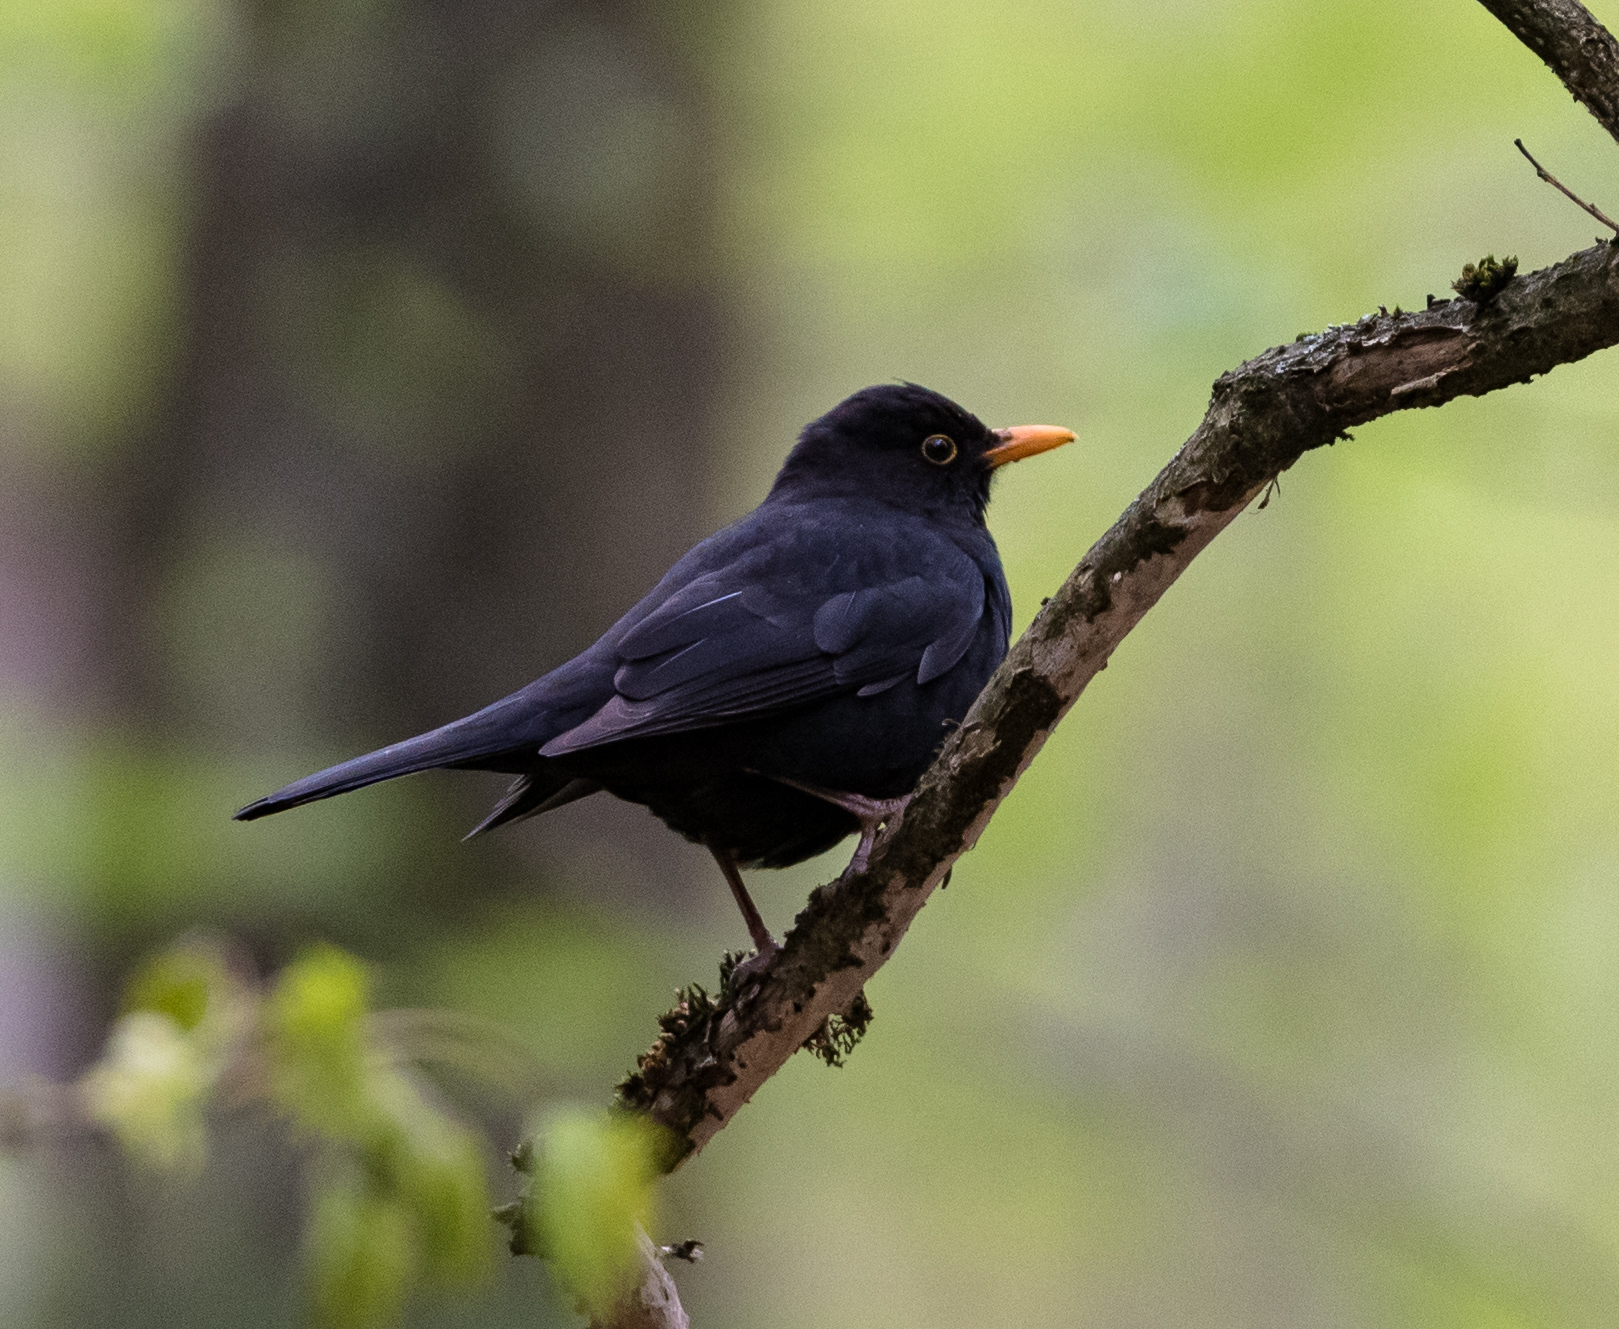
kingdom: Animalia
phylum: Chordata
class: Aves
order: Passeriformes
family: Turdidae
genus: Turdus
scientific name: Turdus merula
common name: Common blackbird
